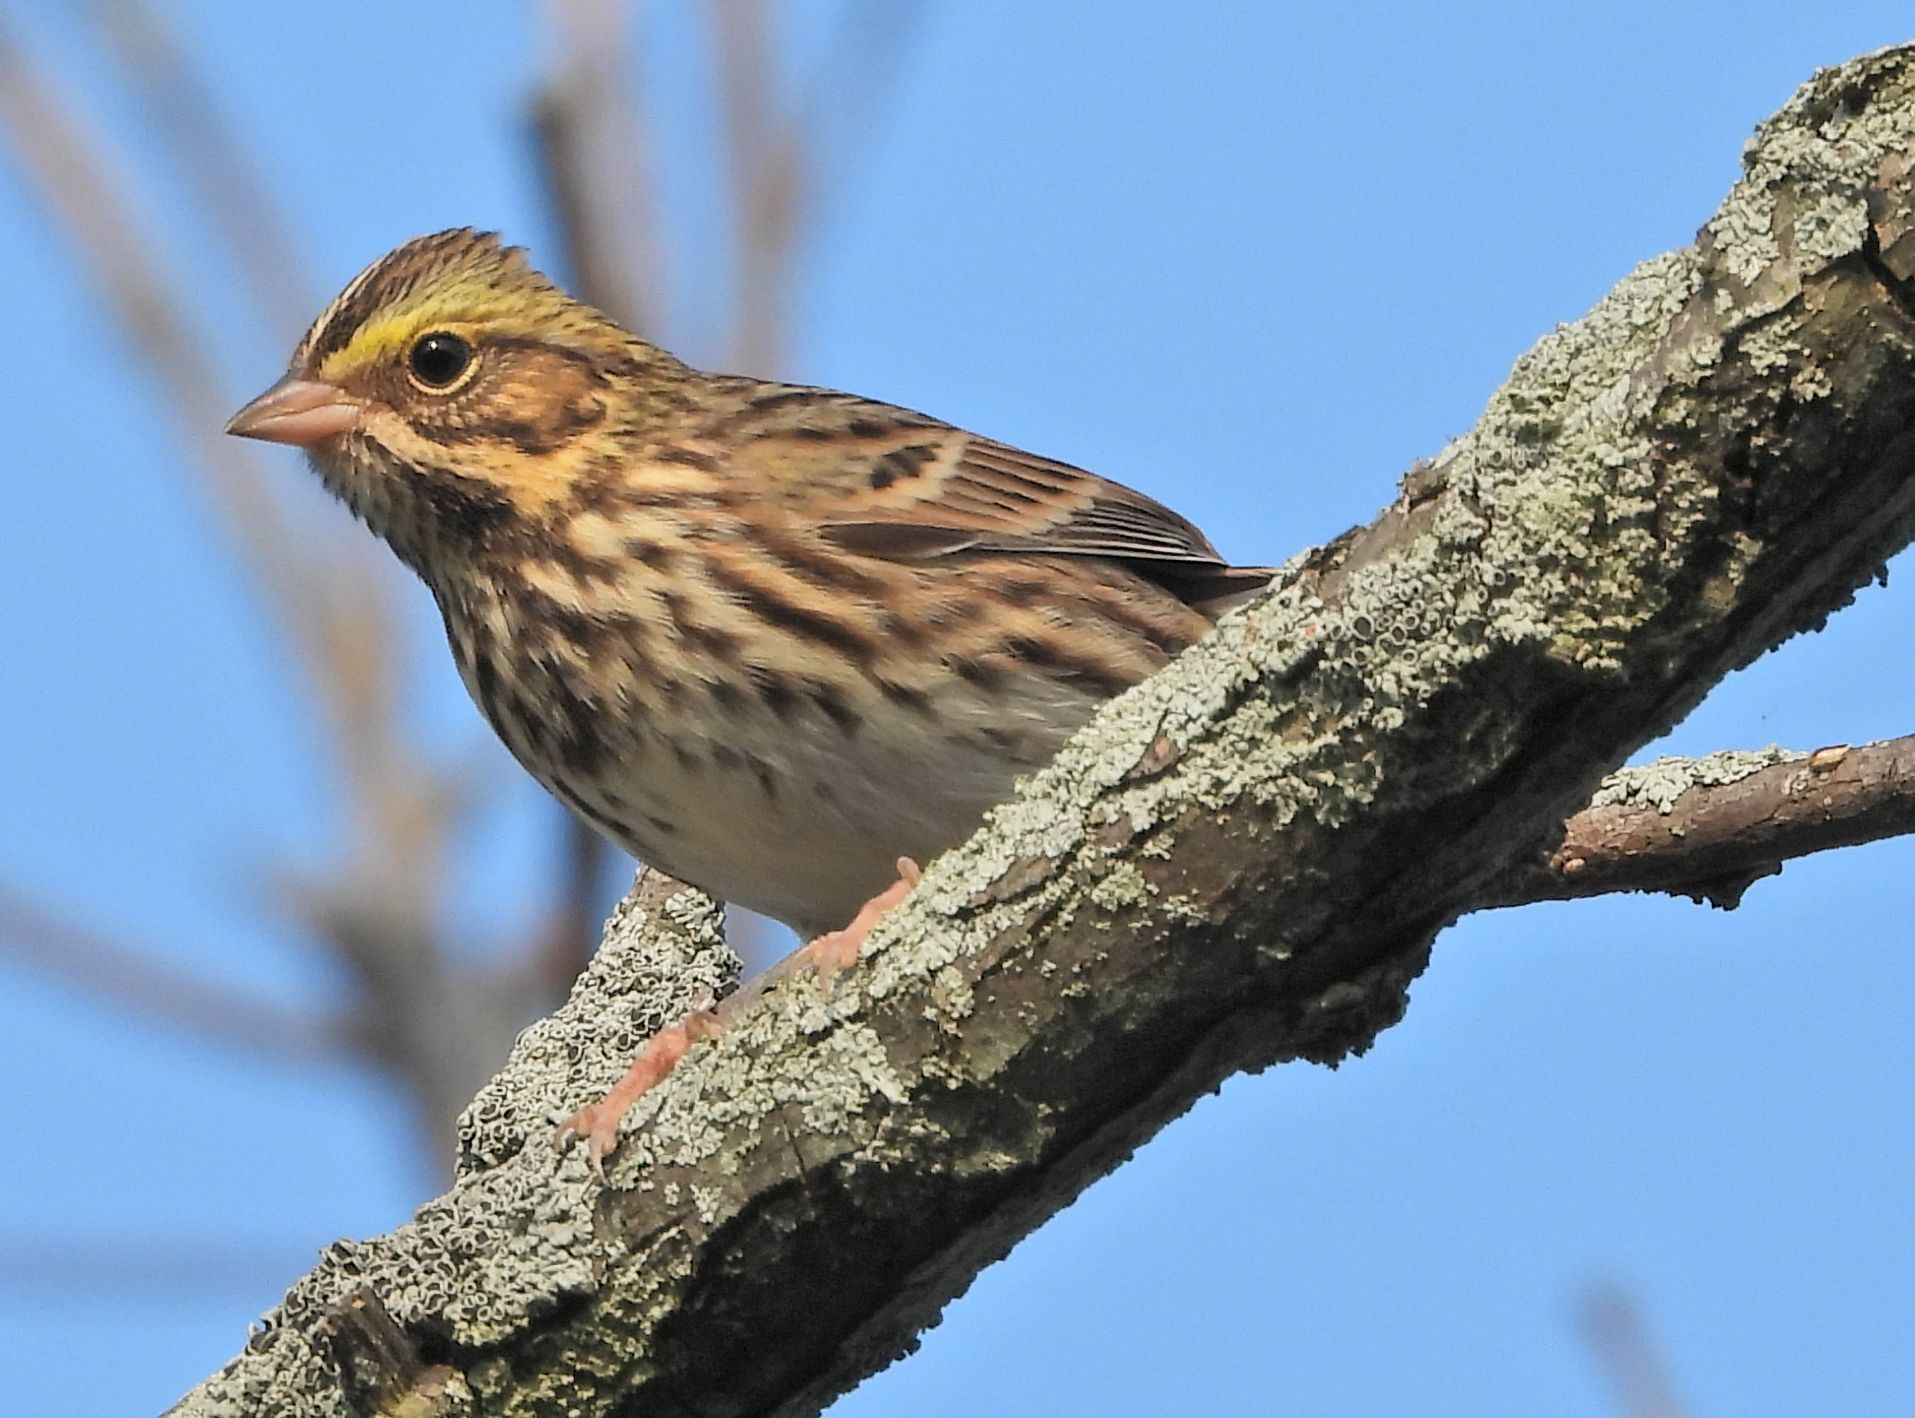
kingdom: Animalia
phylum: Chordata
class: Aves
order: Passeriformes
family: Passerellidae
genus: Passerculus
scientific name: Passerculus sandwichensis
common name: Savannah sparrow
